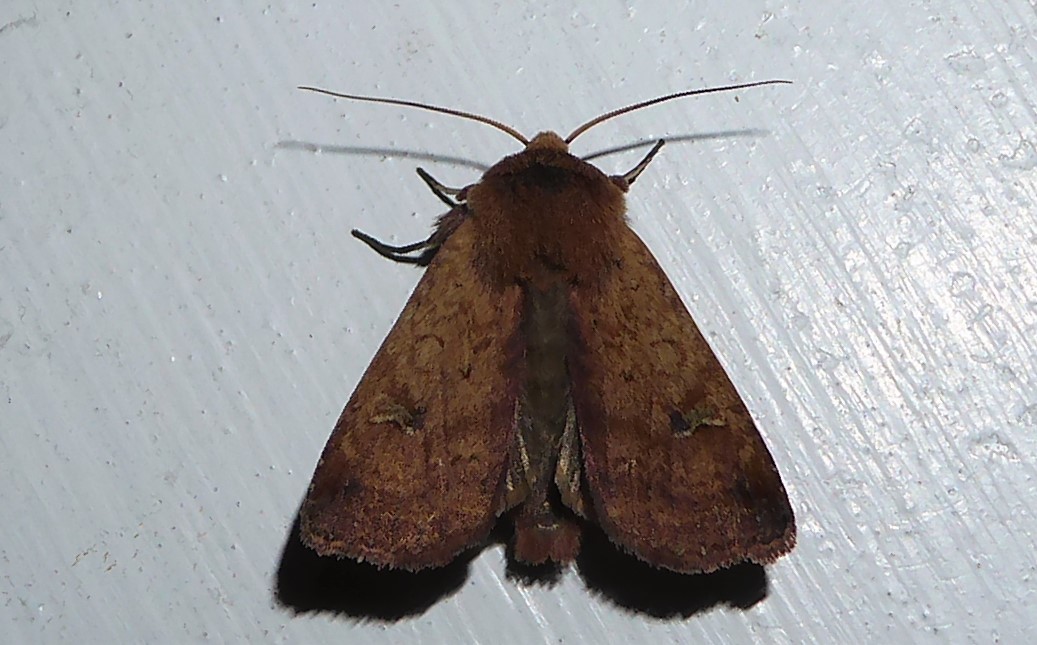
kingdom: Animalia
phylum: Arthropoda
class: Insecta
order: Lepidoptera
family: Noctuidae
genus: Diarsia
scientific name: Diarsia intermixta
